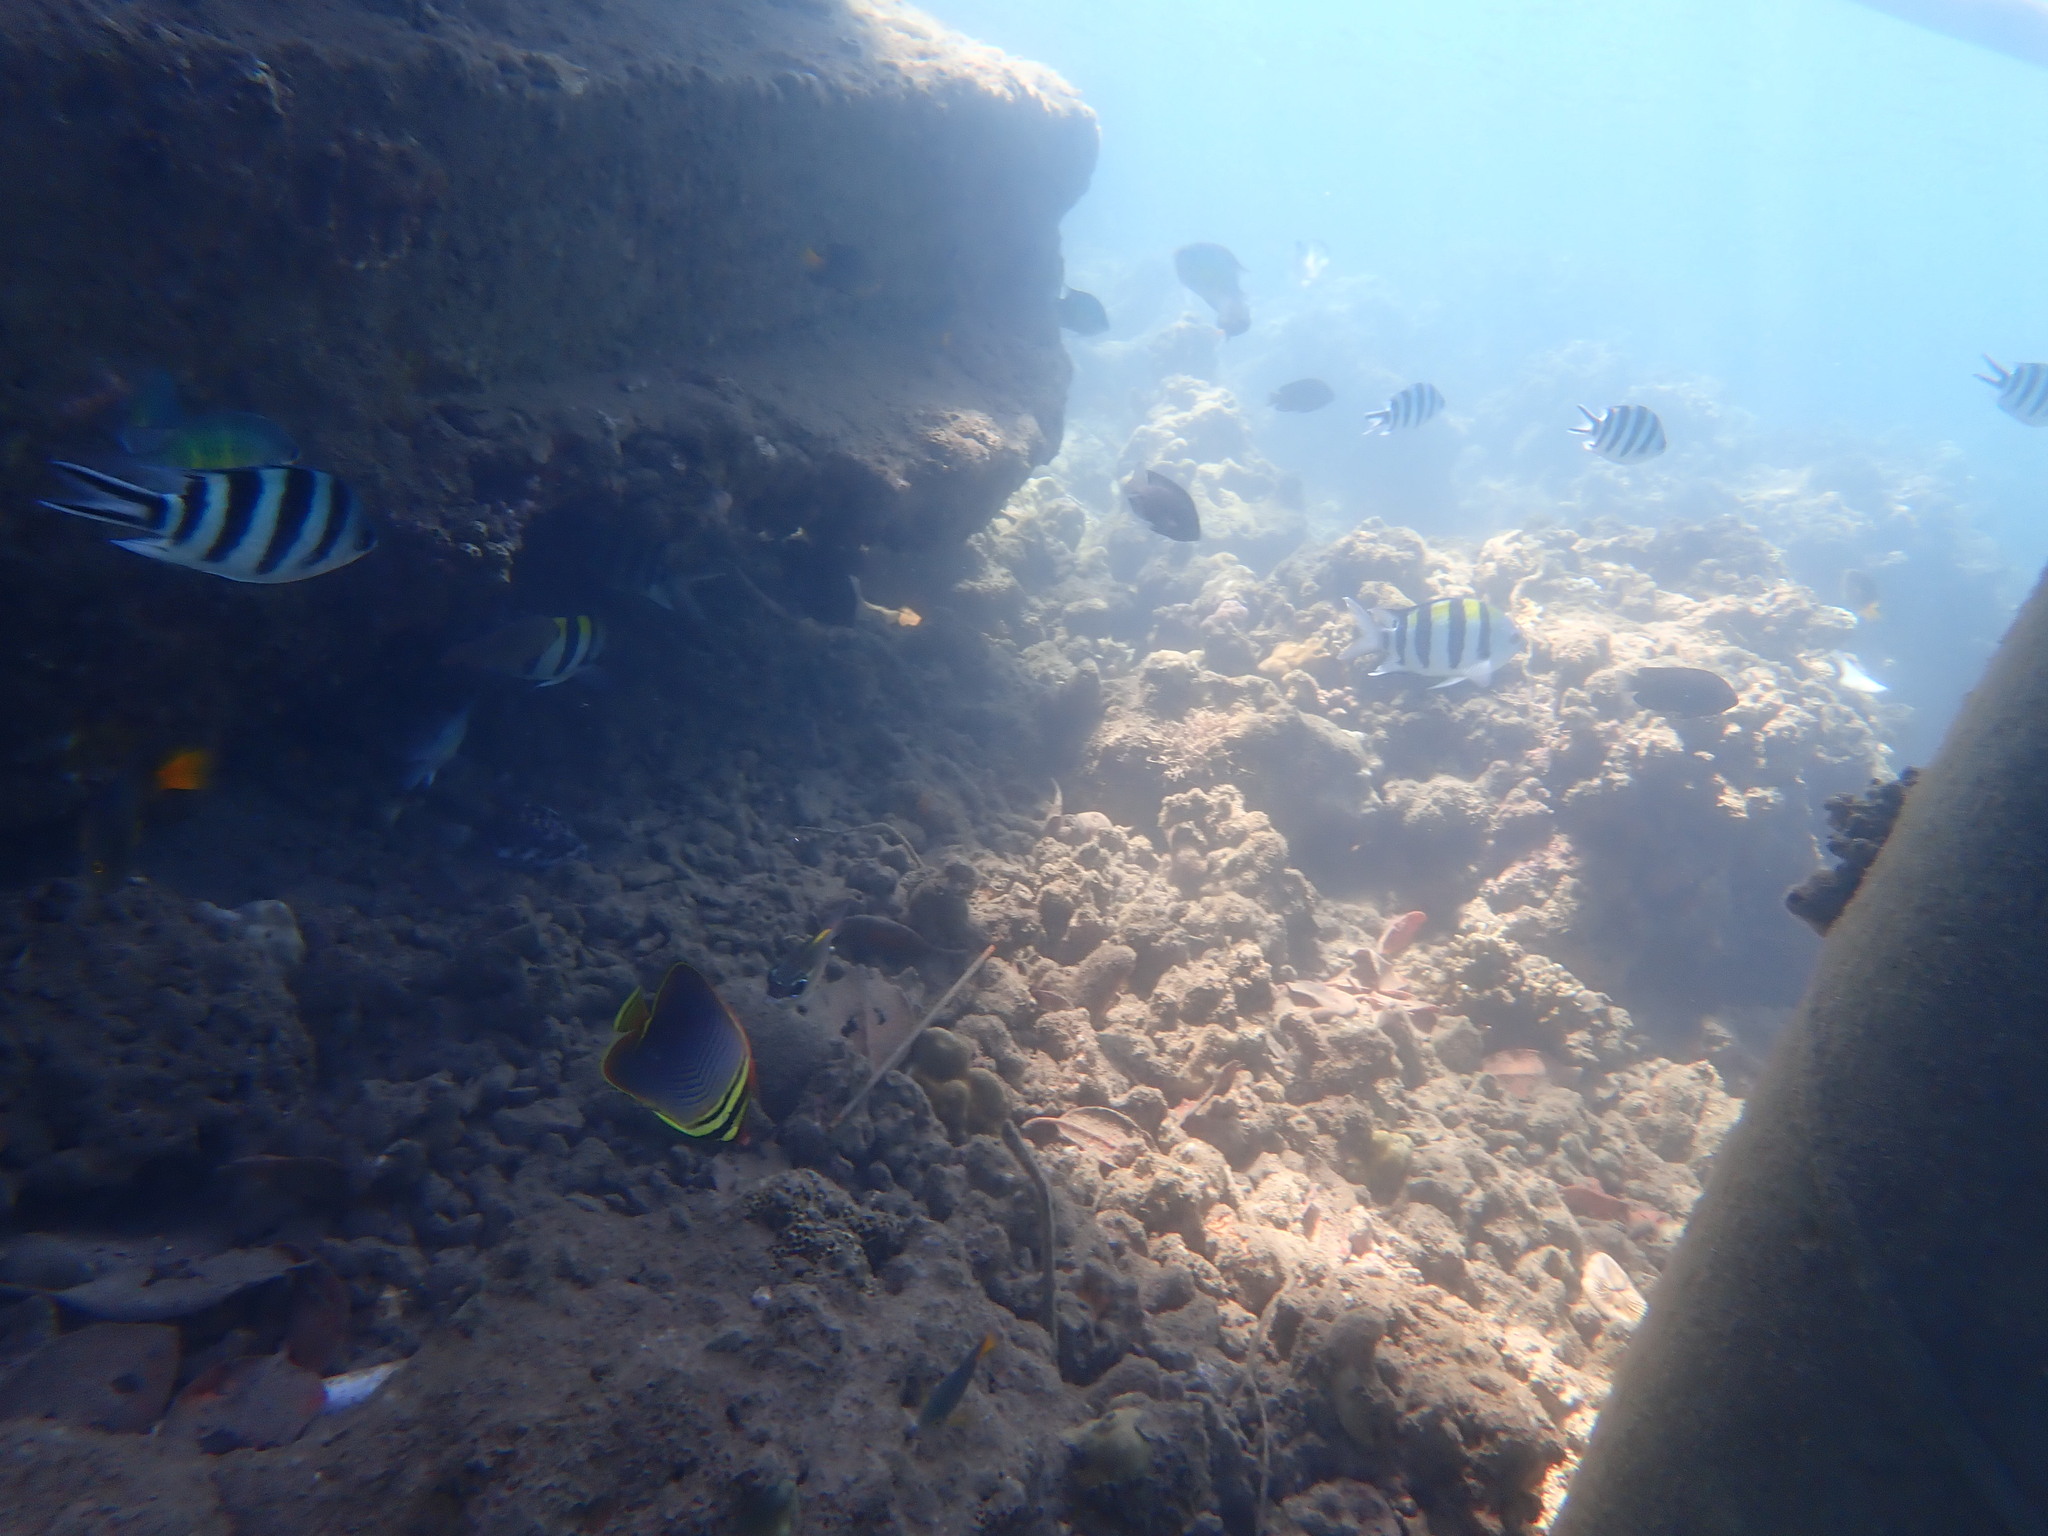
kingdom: Animalia
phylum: Chordata
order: Perciformes
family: Chaetodontidae
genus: Chaetodon
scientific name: Chaetodon baronessa
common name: Triangular butterflyfish
